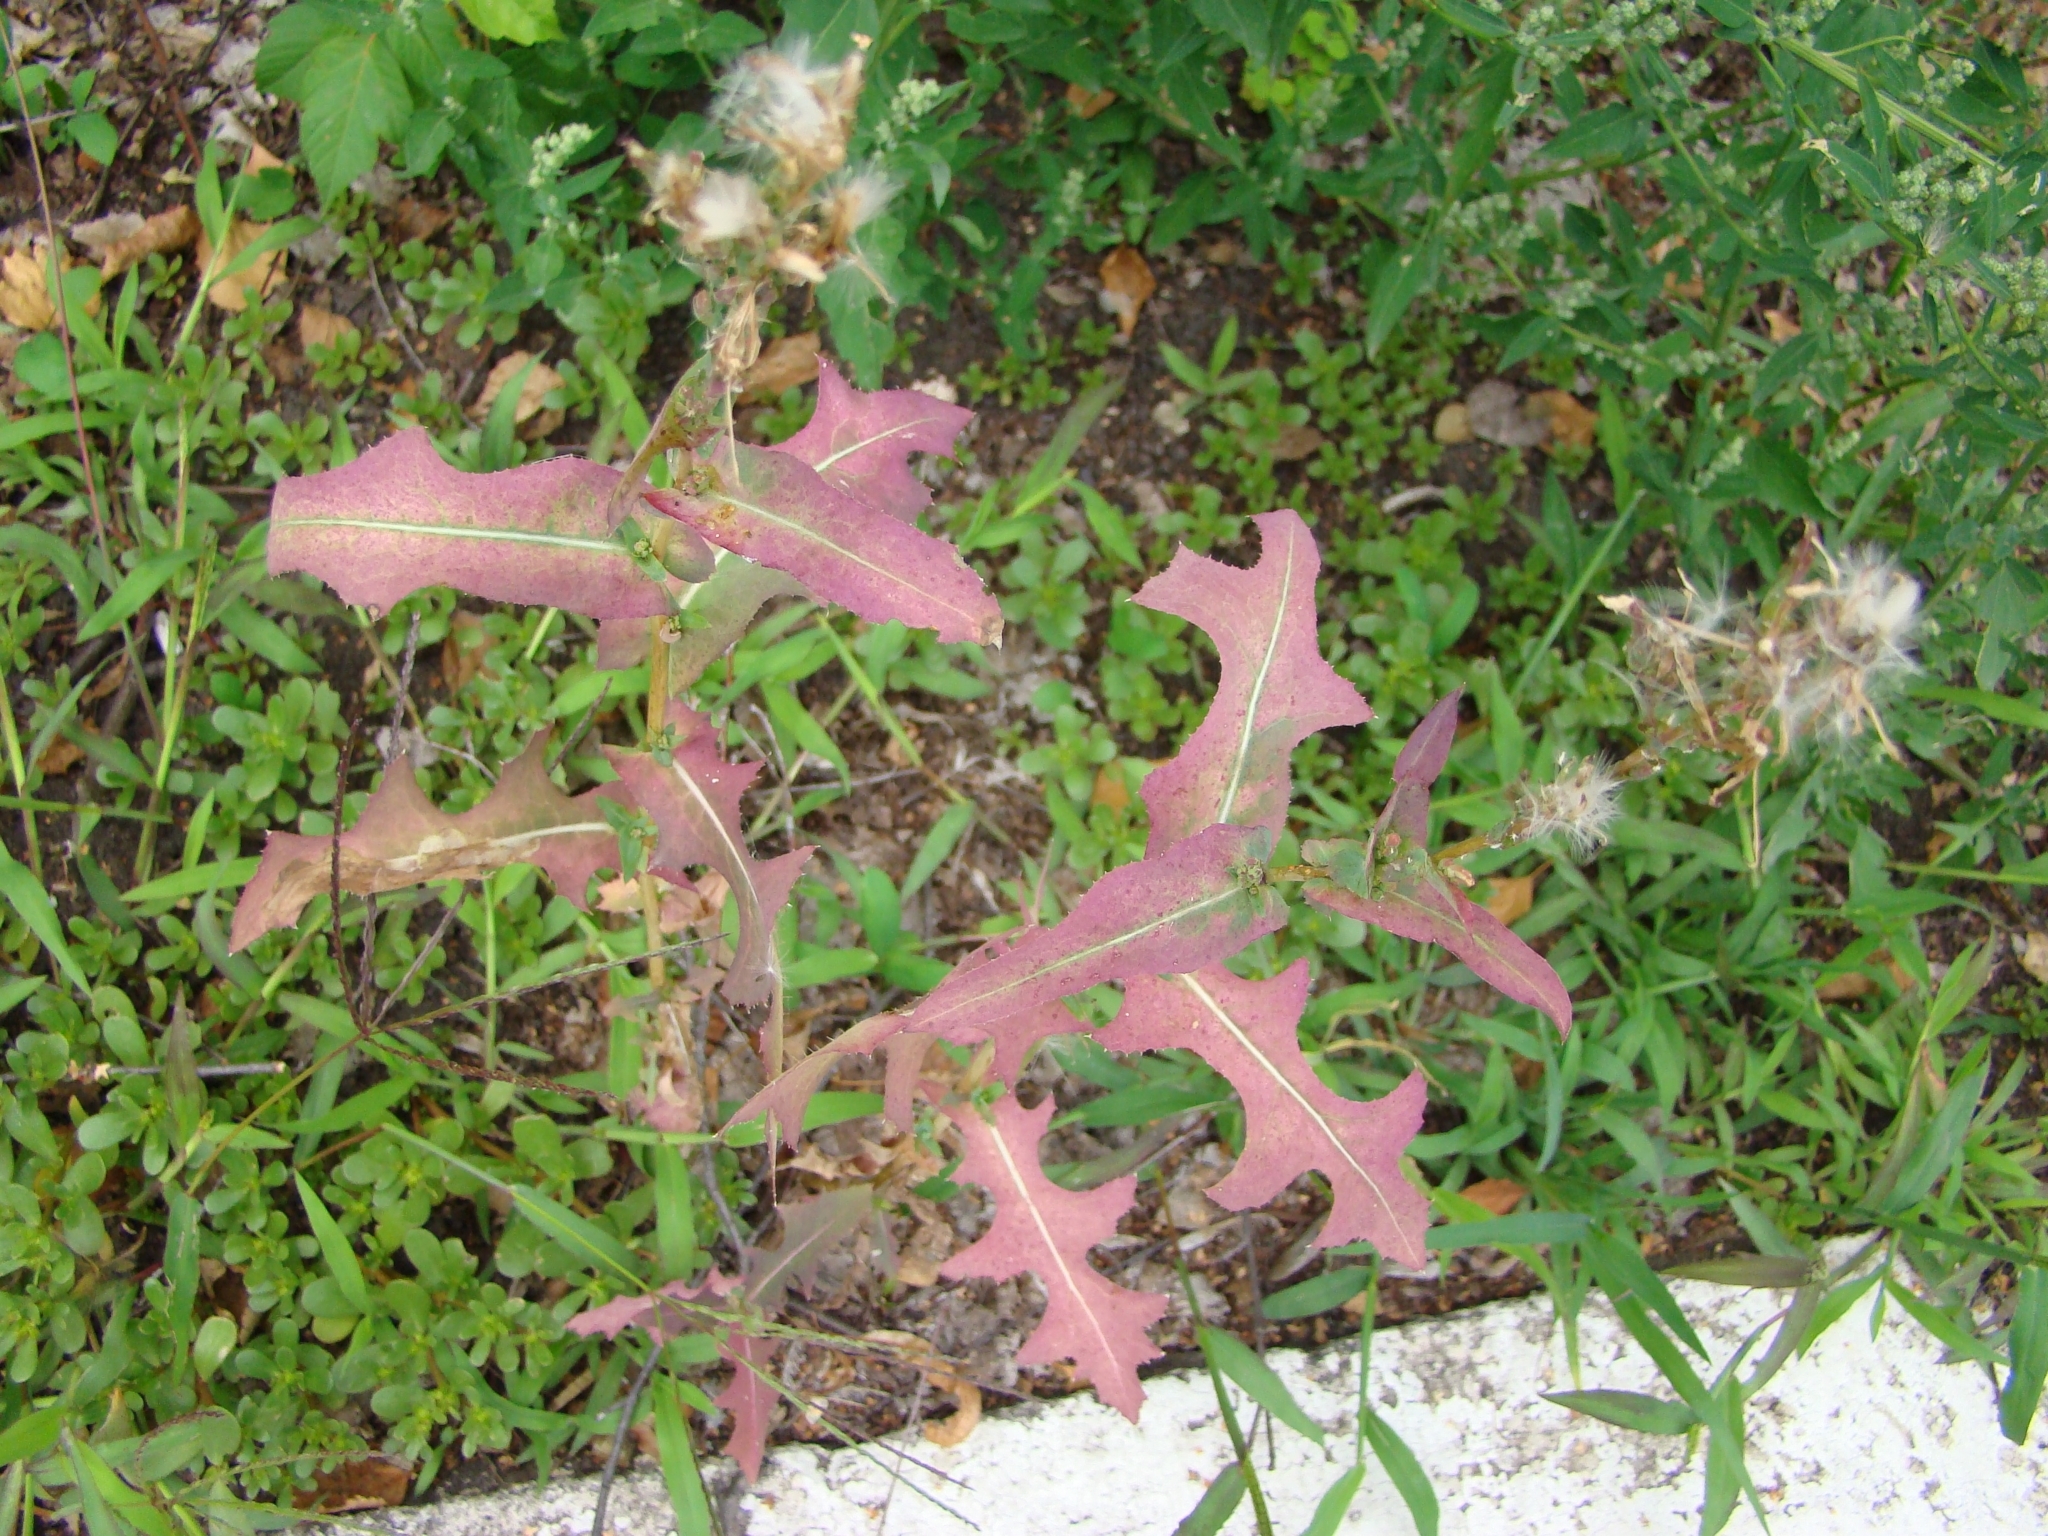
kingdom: Plantae
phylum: Tracheophyta
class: Magnoliopsida
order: Asterales
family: Asteraceae
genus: Lactuca
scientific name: Lactuca serriola
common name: Prickly lettuce
